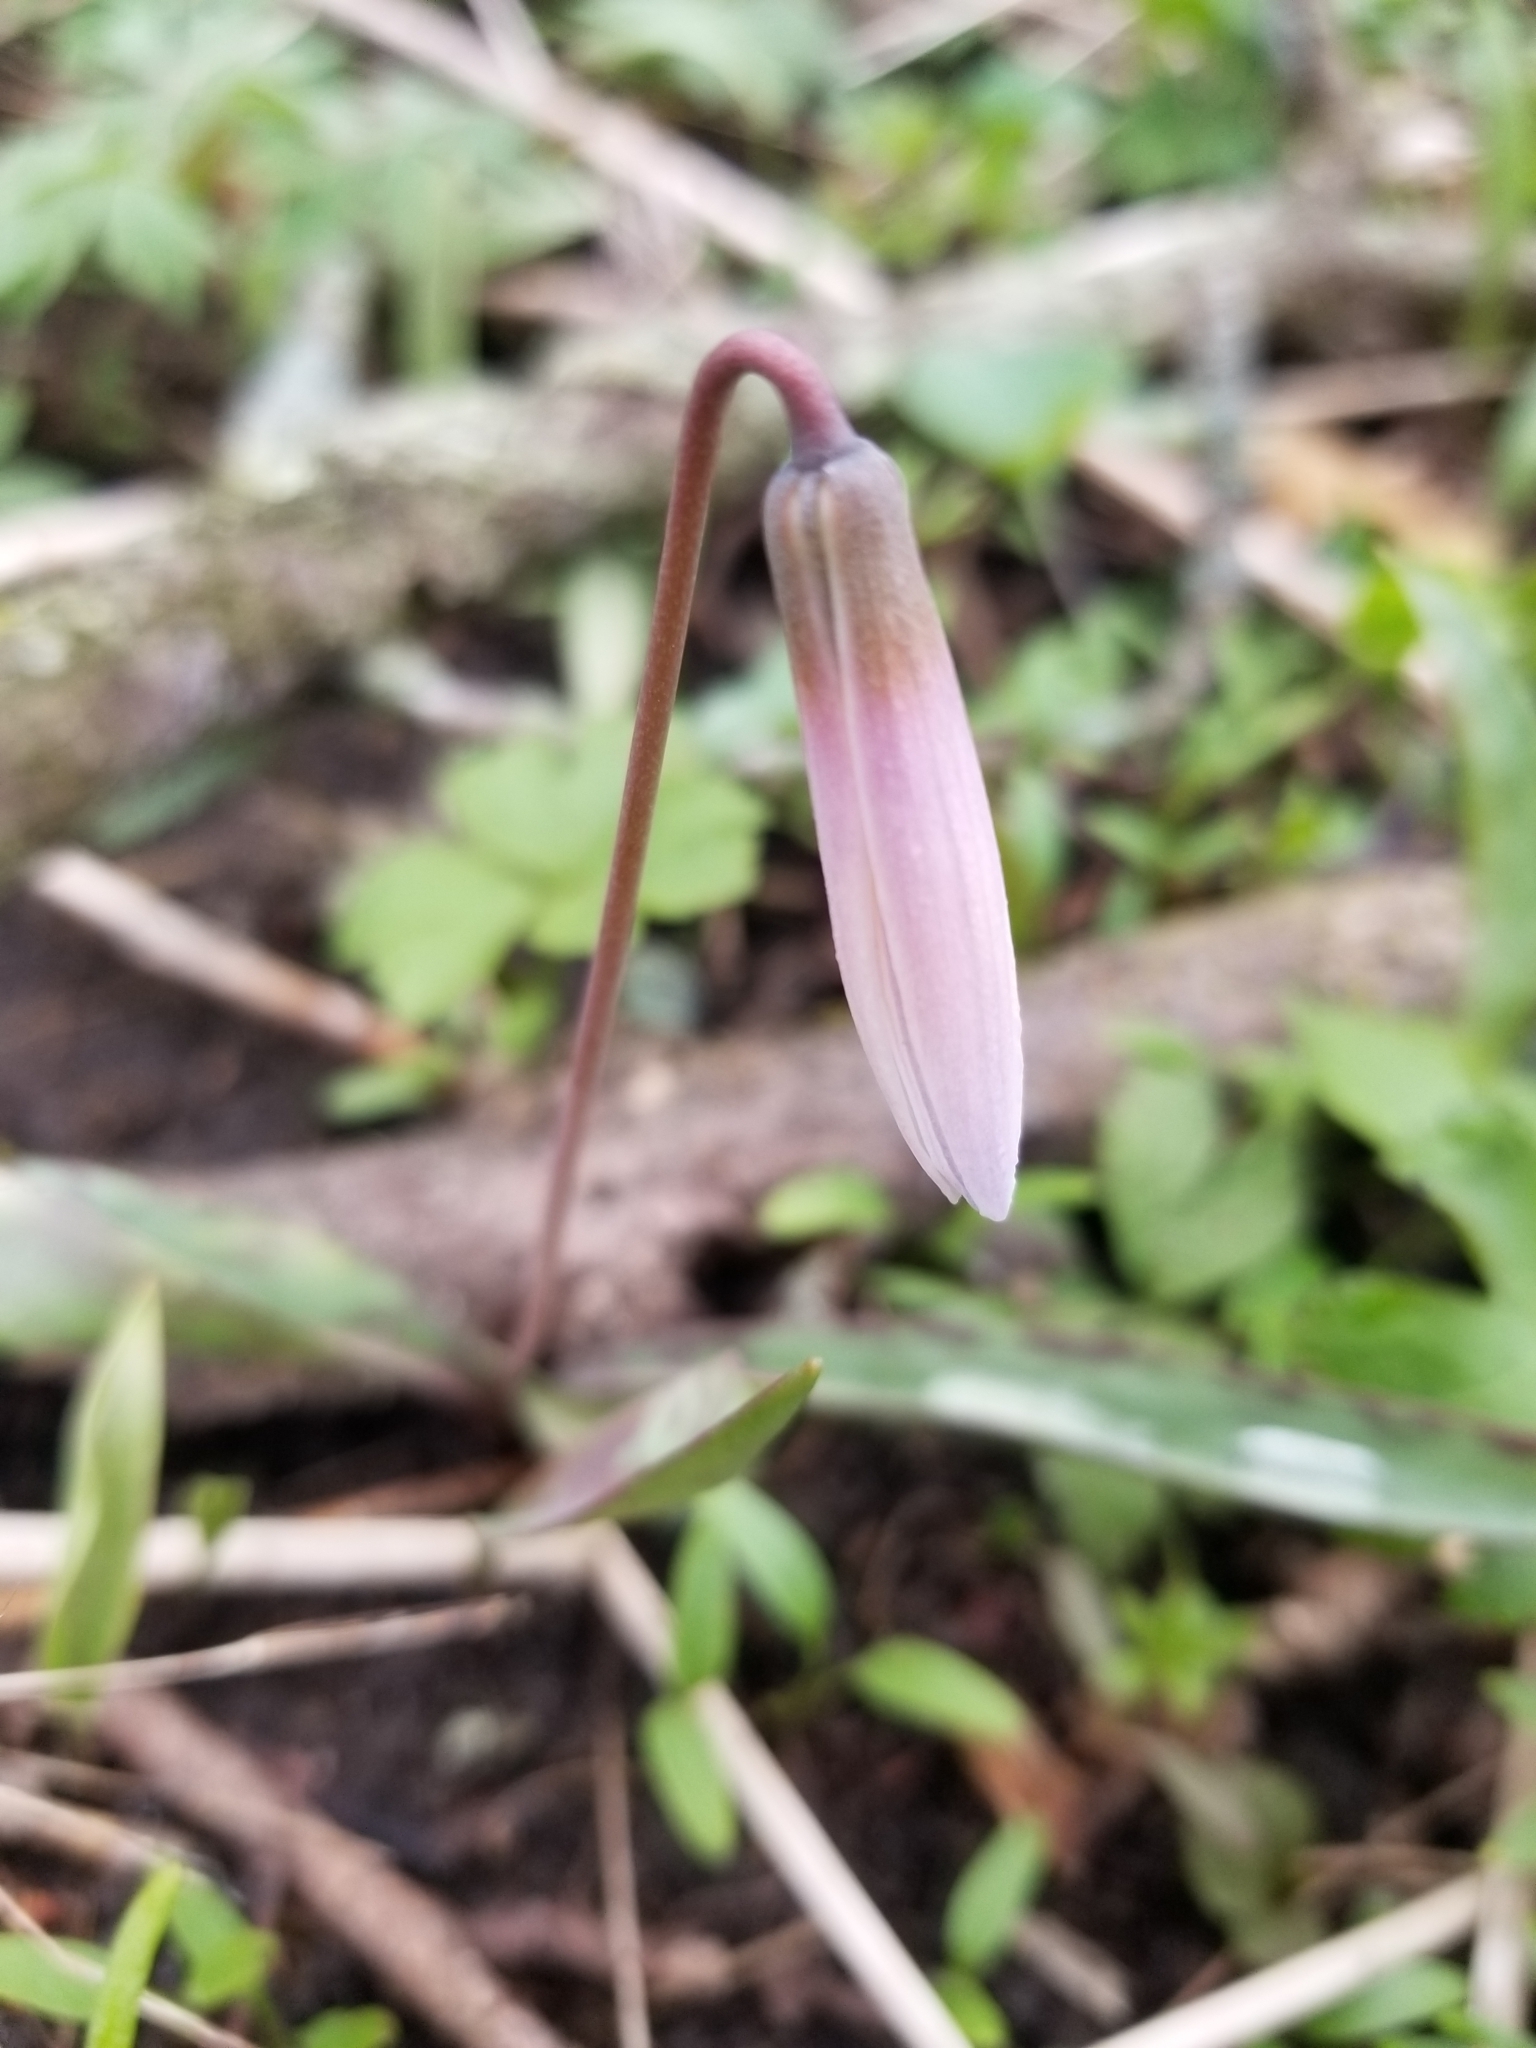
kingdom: Plantae
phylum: Tracheophyta
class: Liliopsida
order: Liliales
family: Liliaceae
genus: Erythronium
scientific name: Erythronium albidum
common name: White trout-lily
